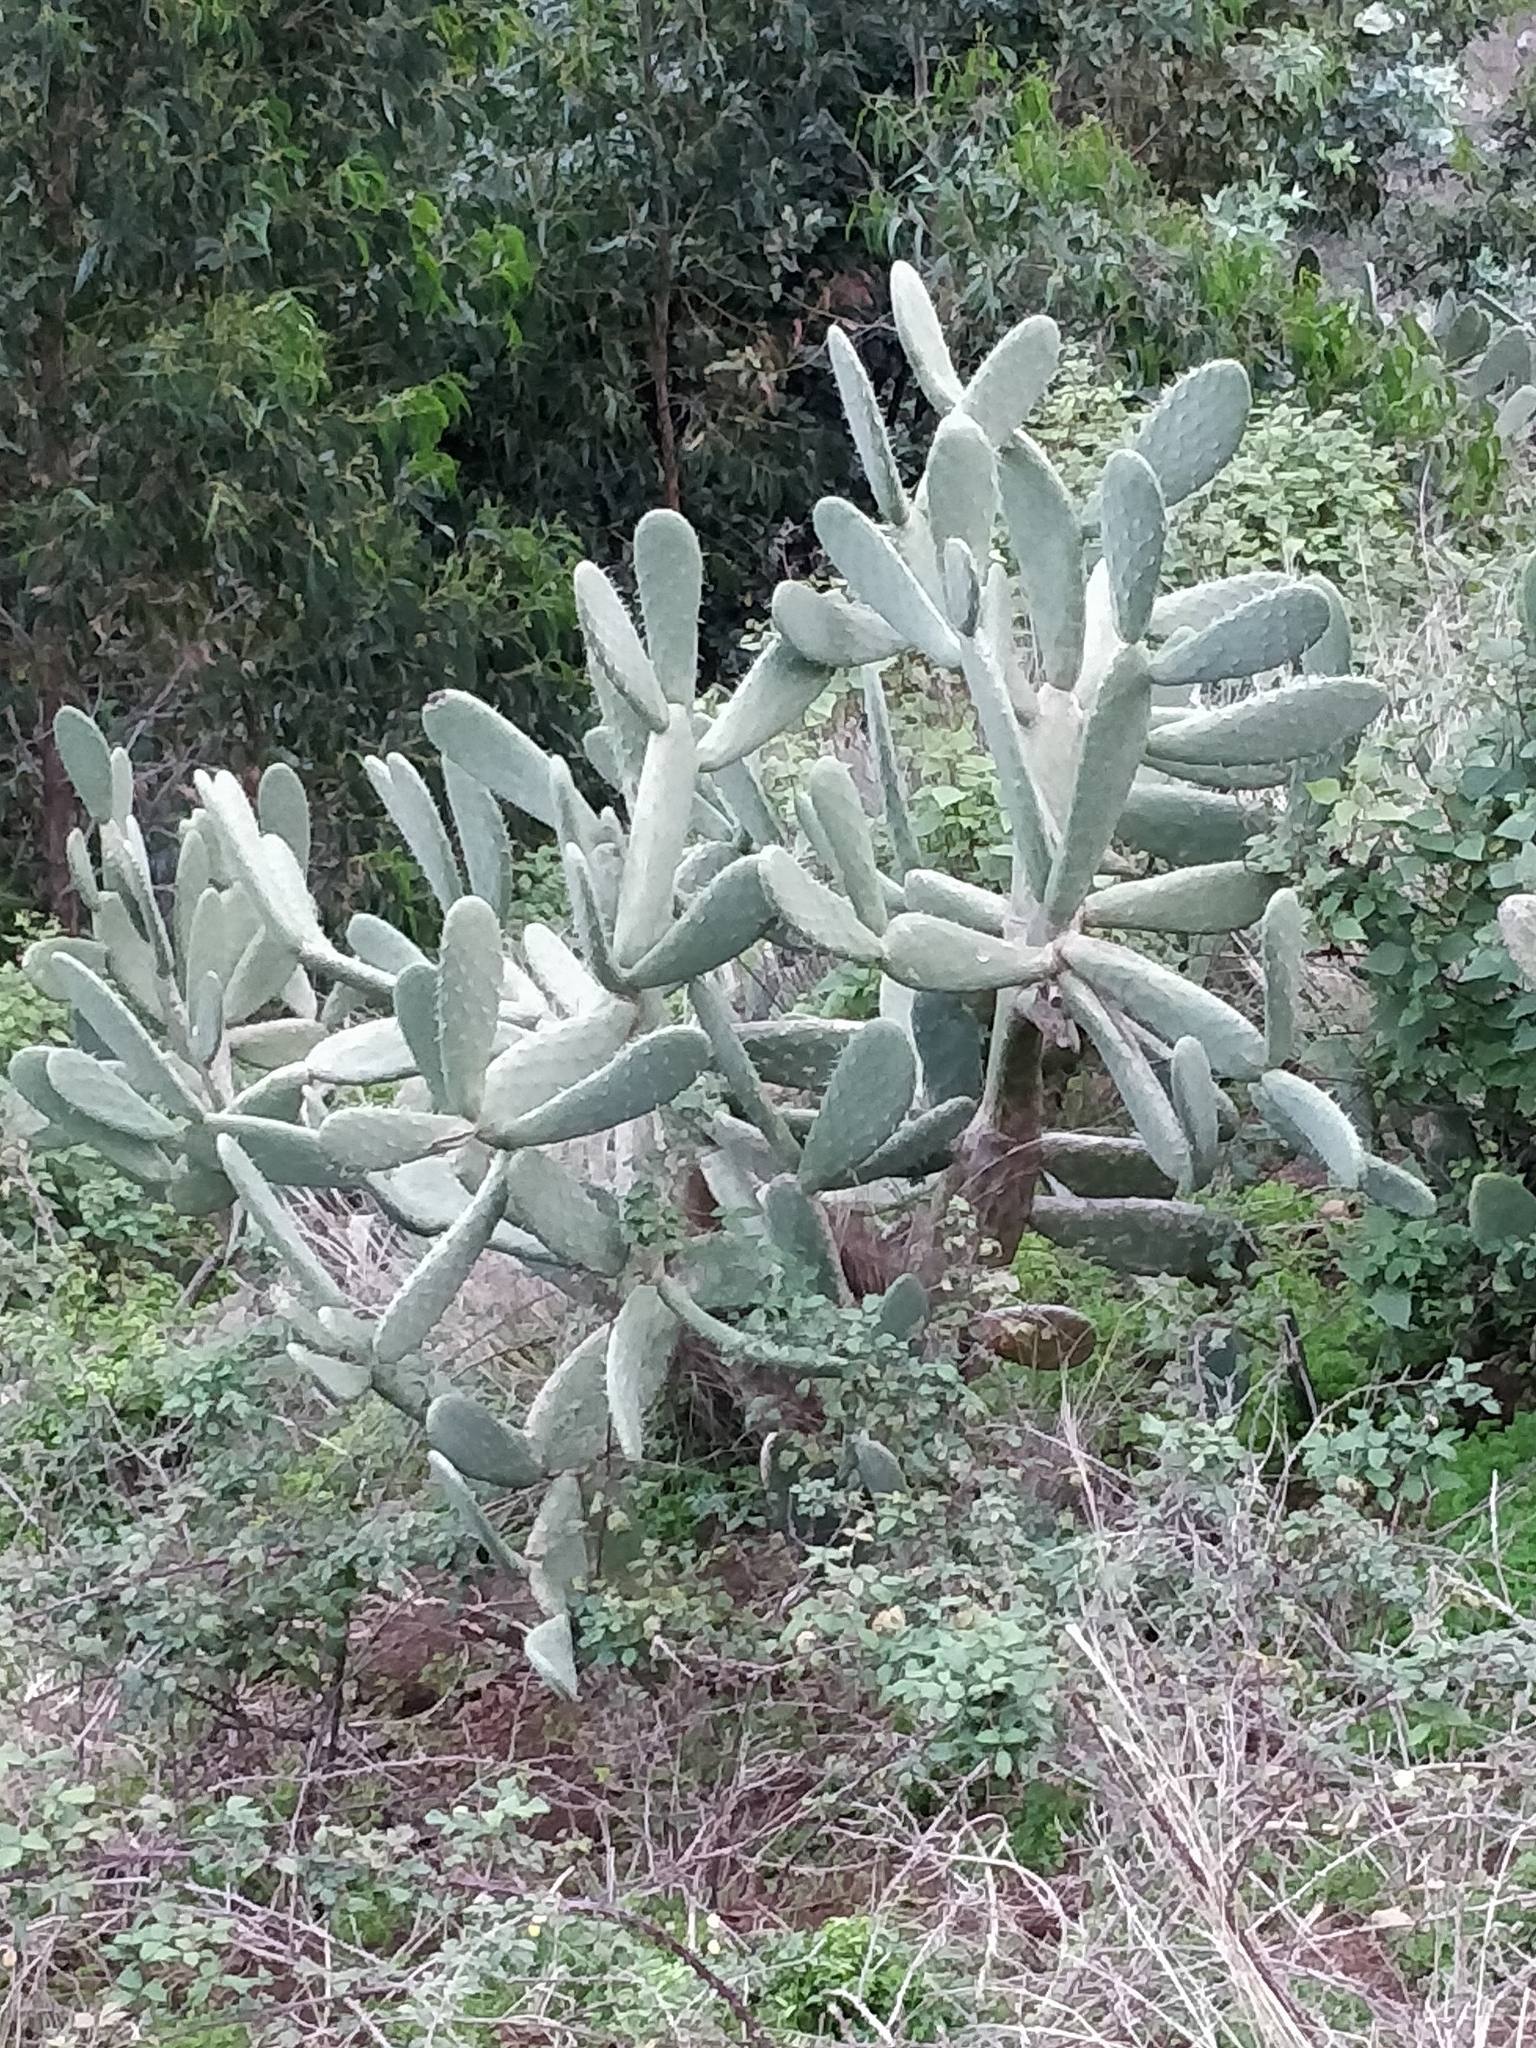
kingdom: Plantae
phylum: Tracheophyta
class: Magnoliopsida
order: Caryophyllales
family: Cactaceae
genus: Opuntia
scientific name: Opuntia ficus-indica
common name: Barbary fig
